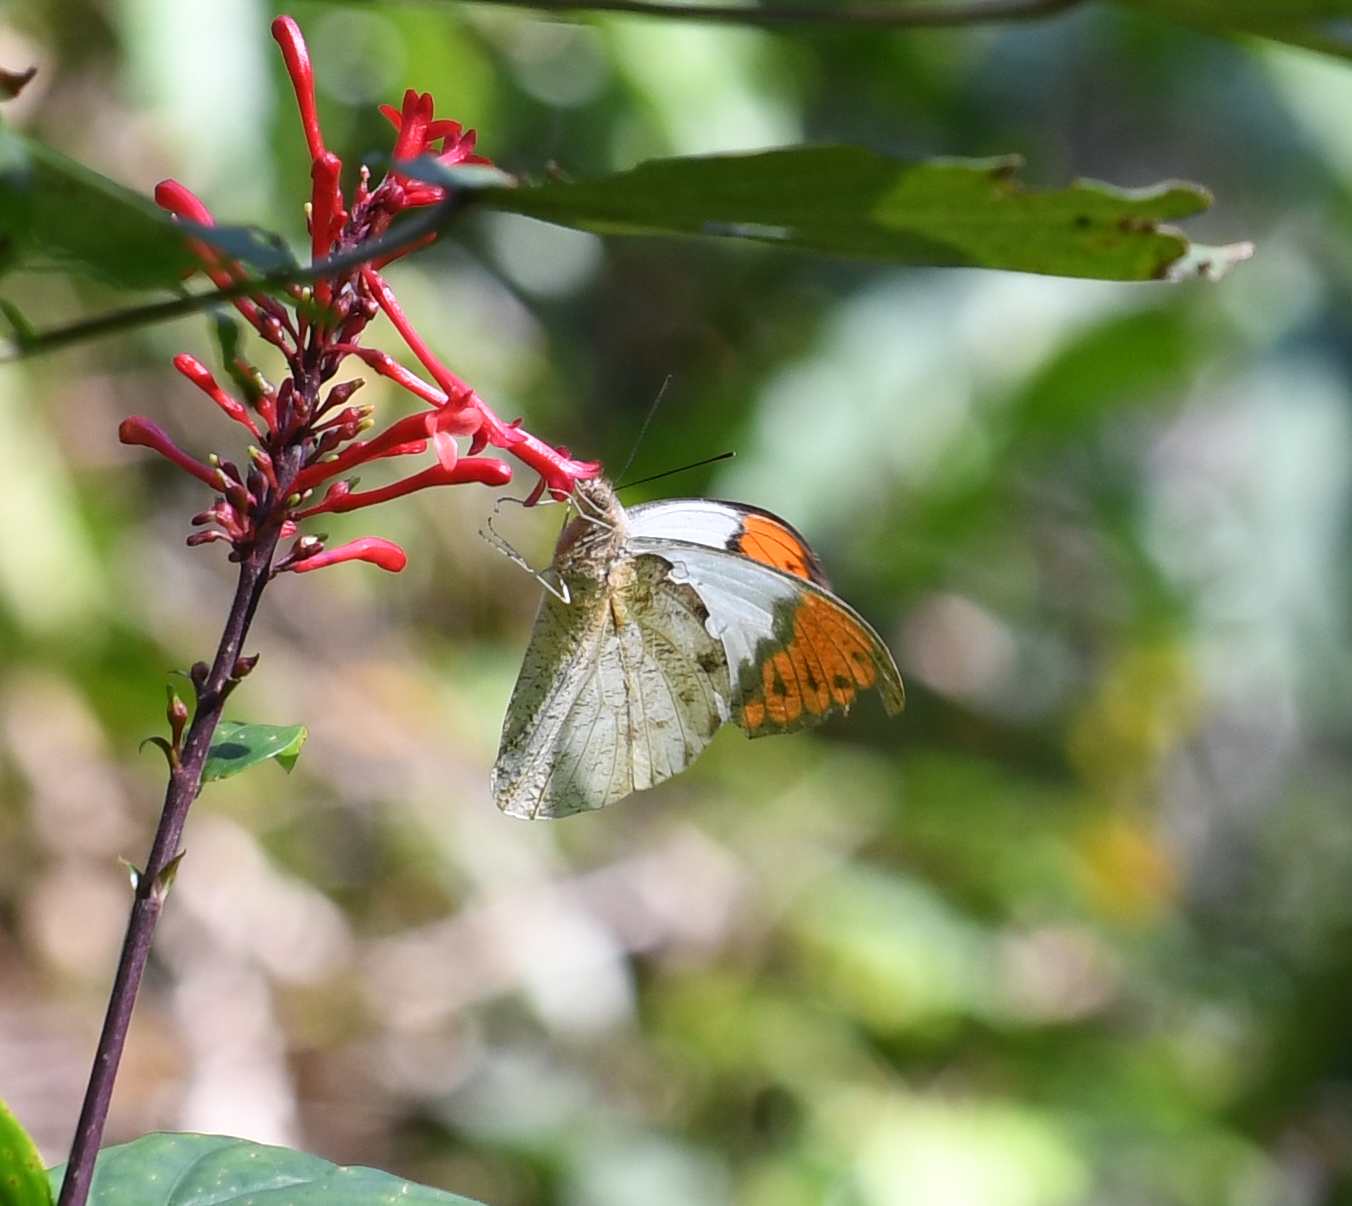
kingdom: Animalia
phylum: Arthropoda
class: Insecta
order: Lepidoptera
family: Pieridae
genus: Hebomoia
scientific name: Hebomoia glaucippe
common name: Great orange tip
